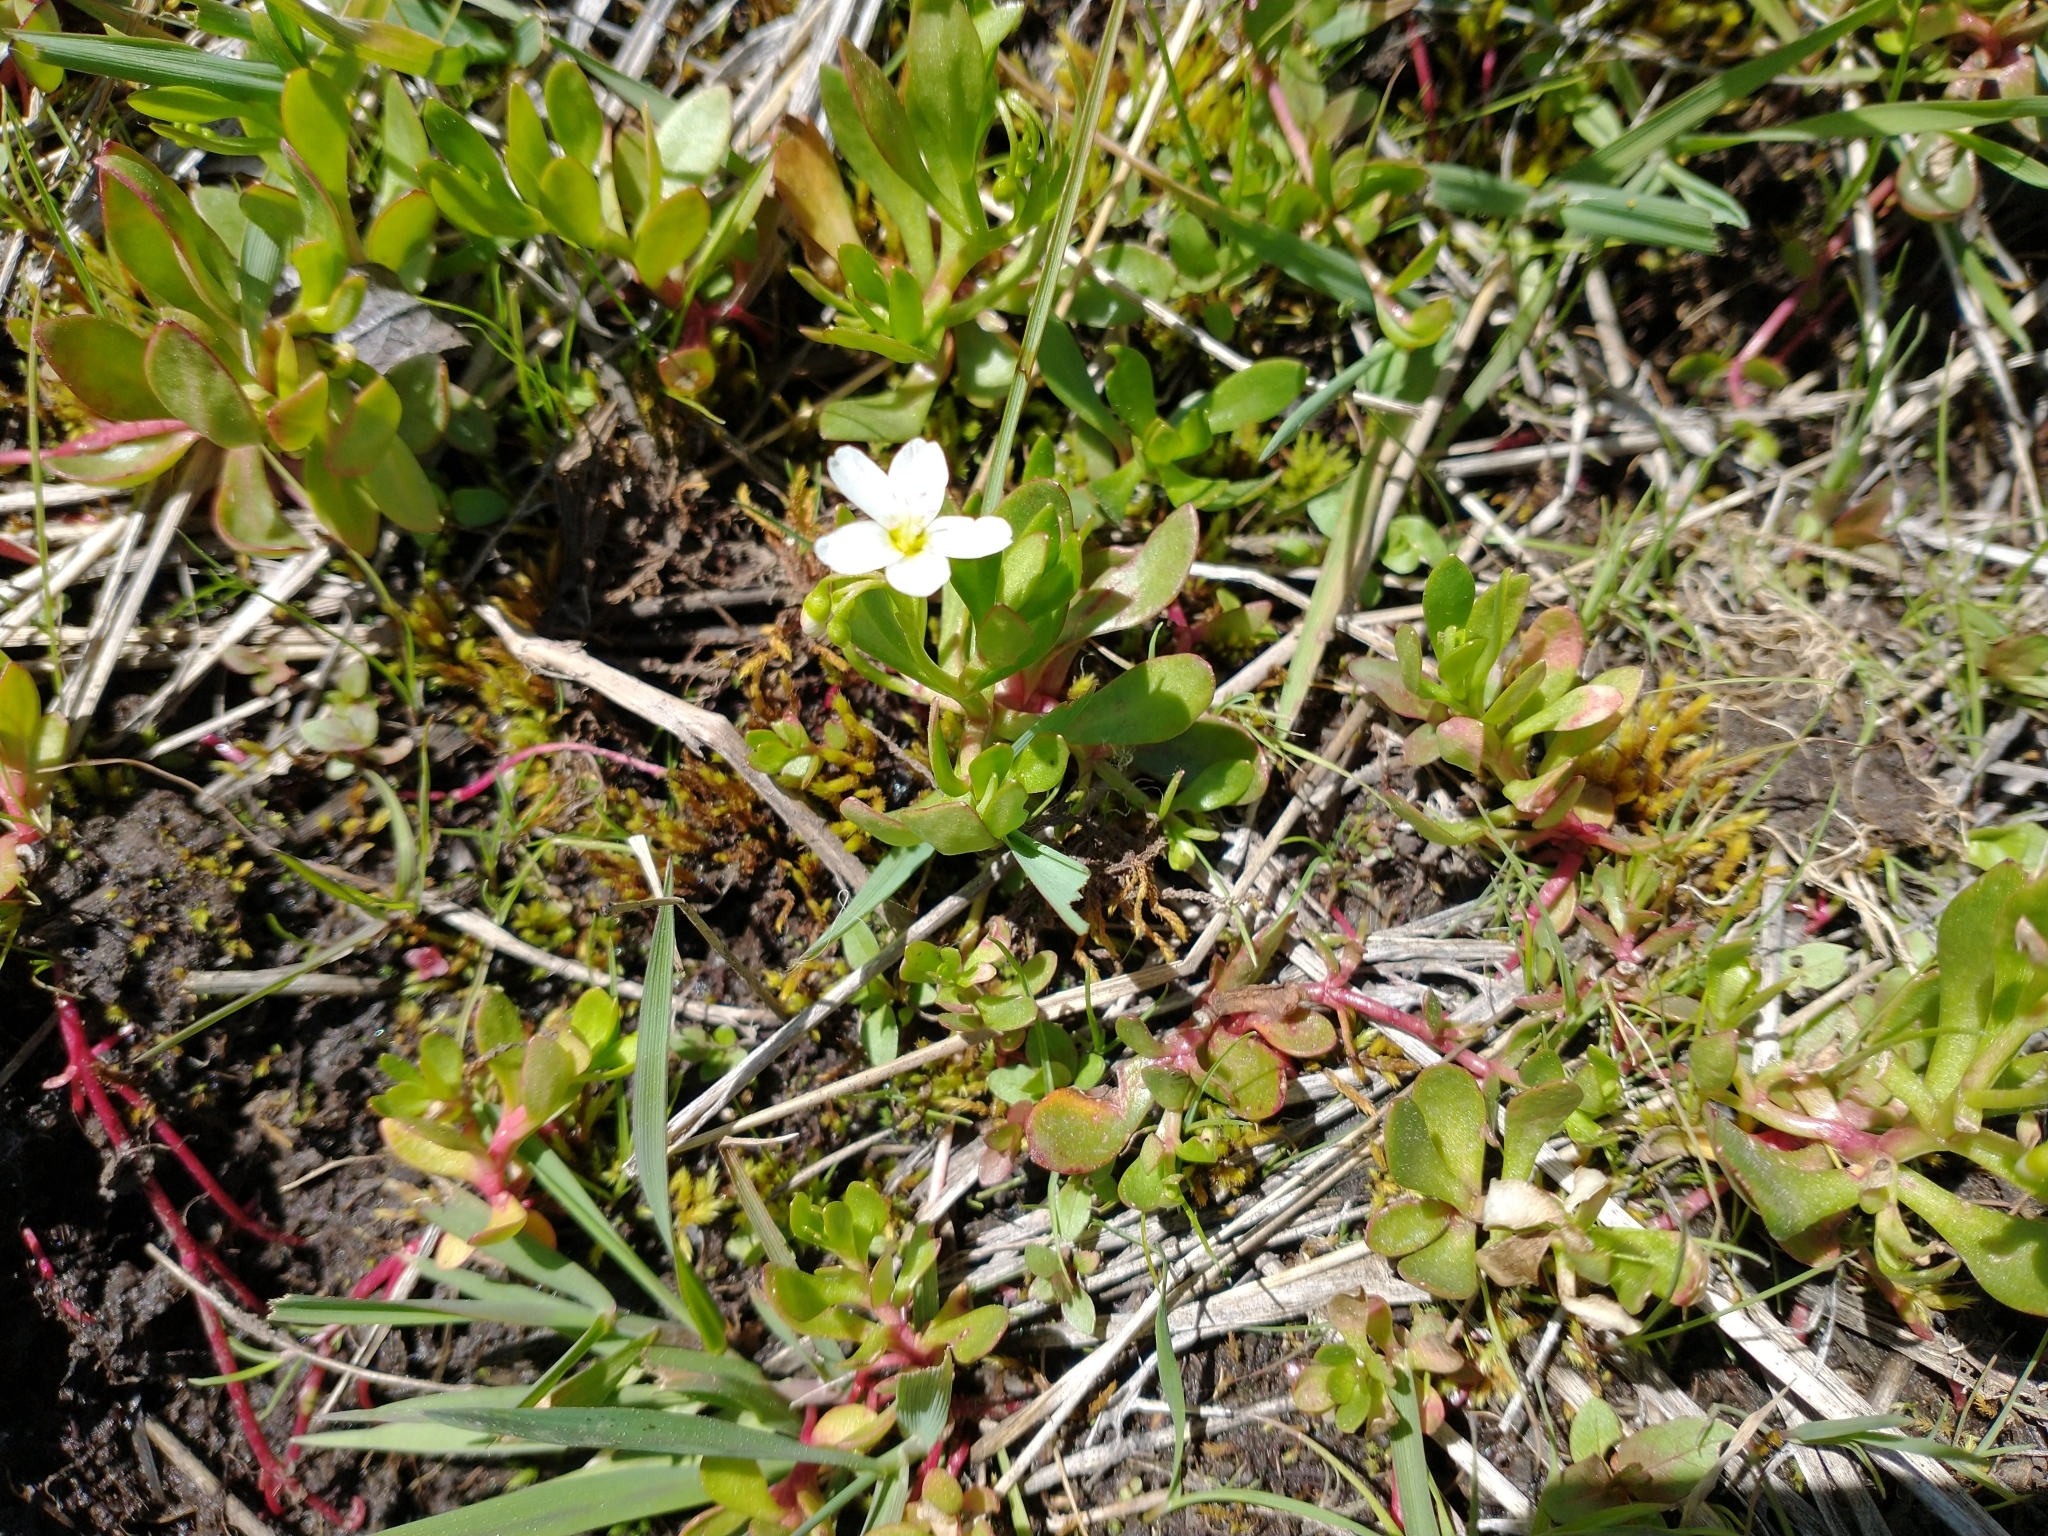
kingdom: Plantae
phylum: Tracheophyta
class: Magnoliopsida
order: Caryophyllales
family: Montiaceae
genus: Montia
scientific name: Montia chamissoi
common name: Chamisso's candyflower
